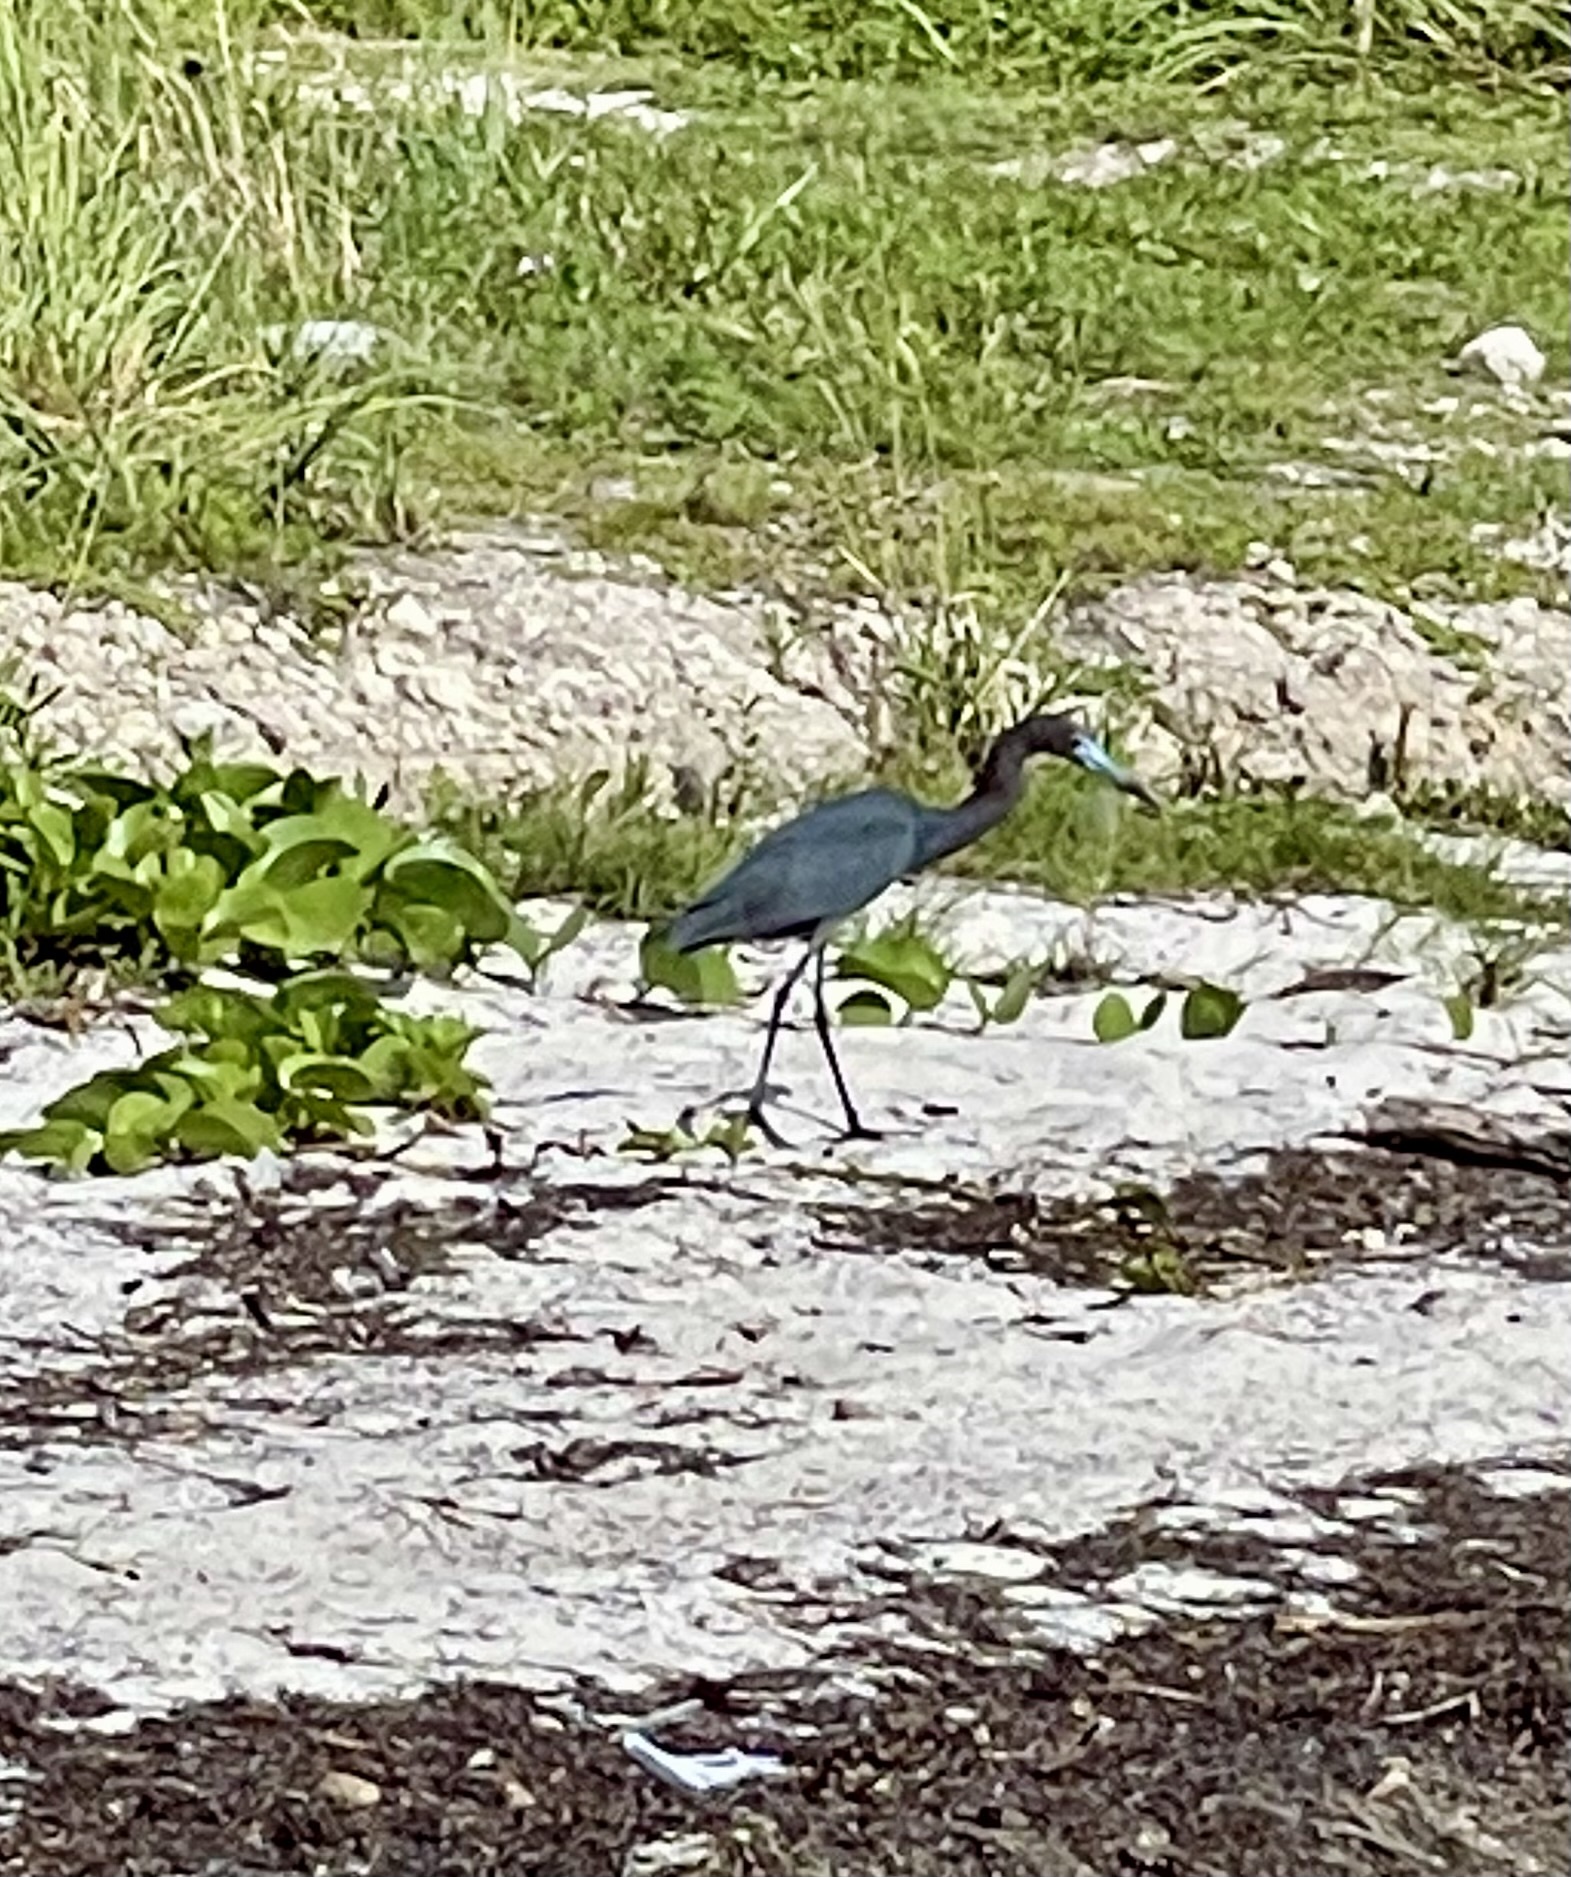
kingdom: Animalia
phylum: Chordata
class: Aves
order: Pelecaniformes
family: Ardeidae
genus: Egretta
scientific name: Egretta caerulea
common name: Little blue heron
